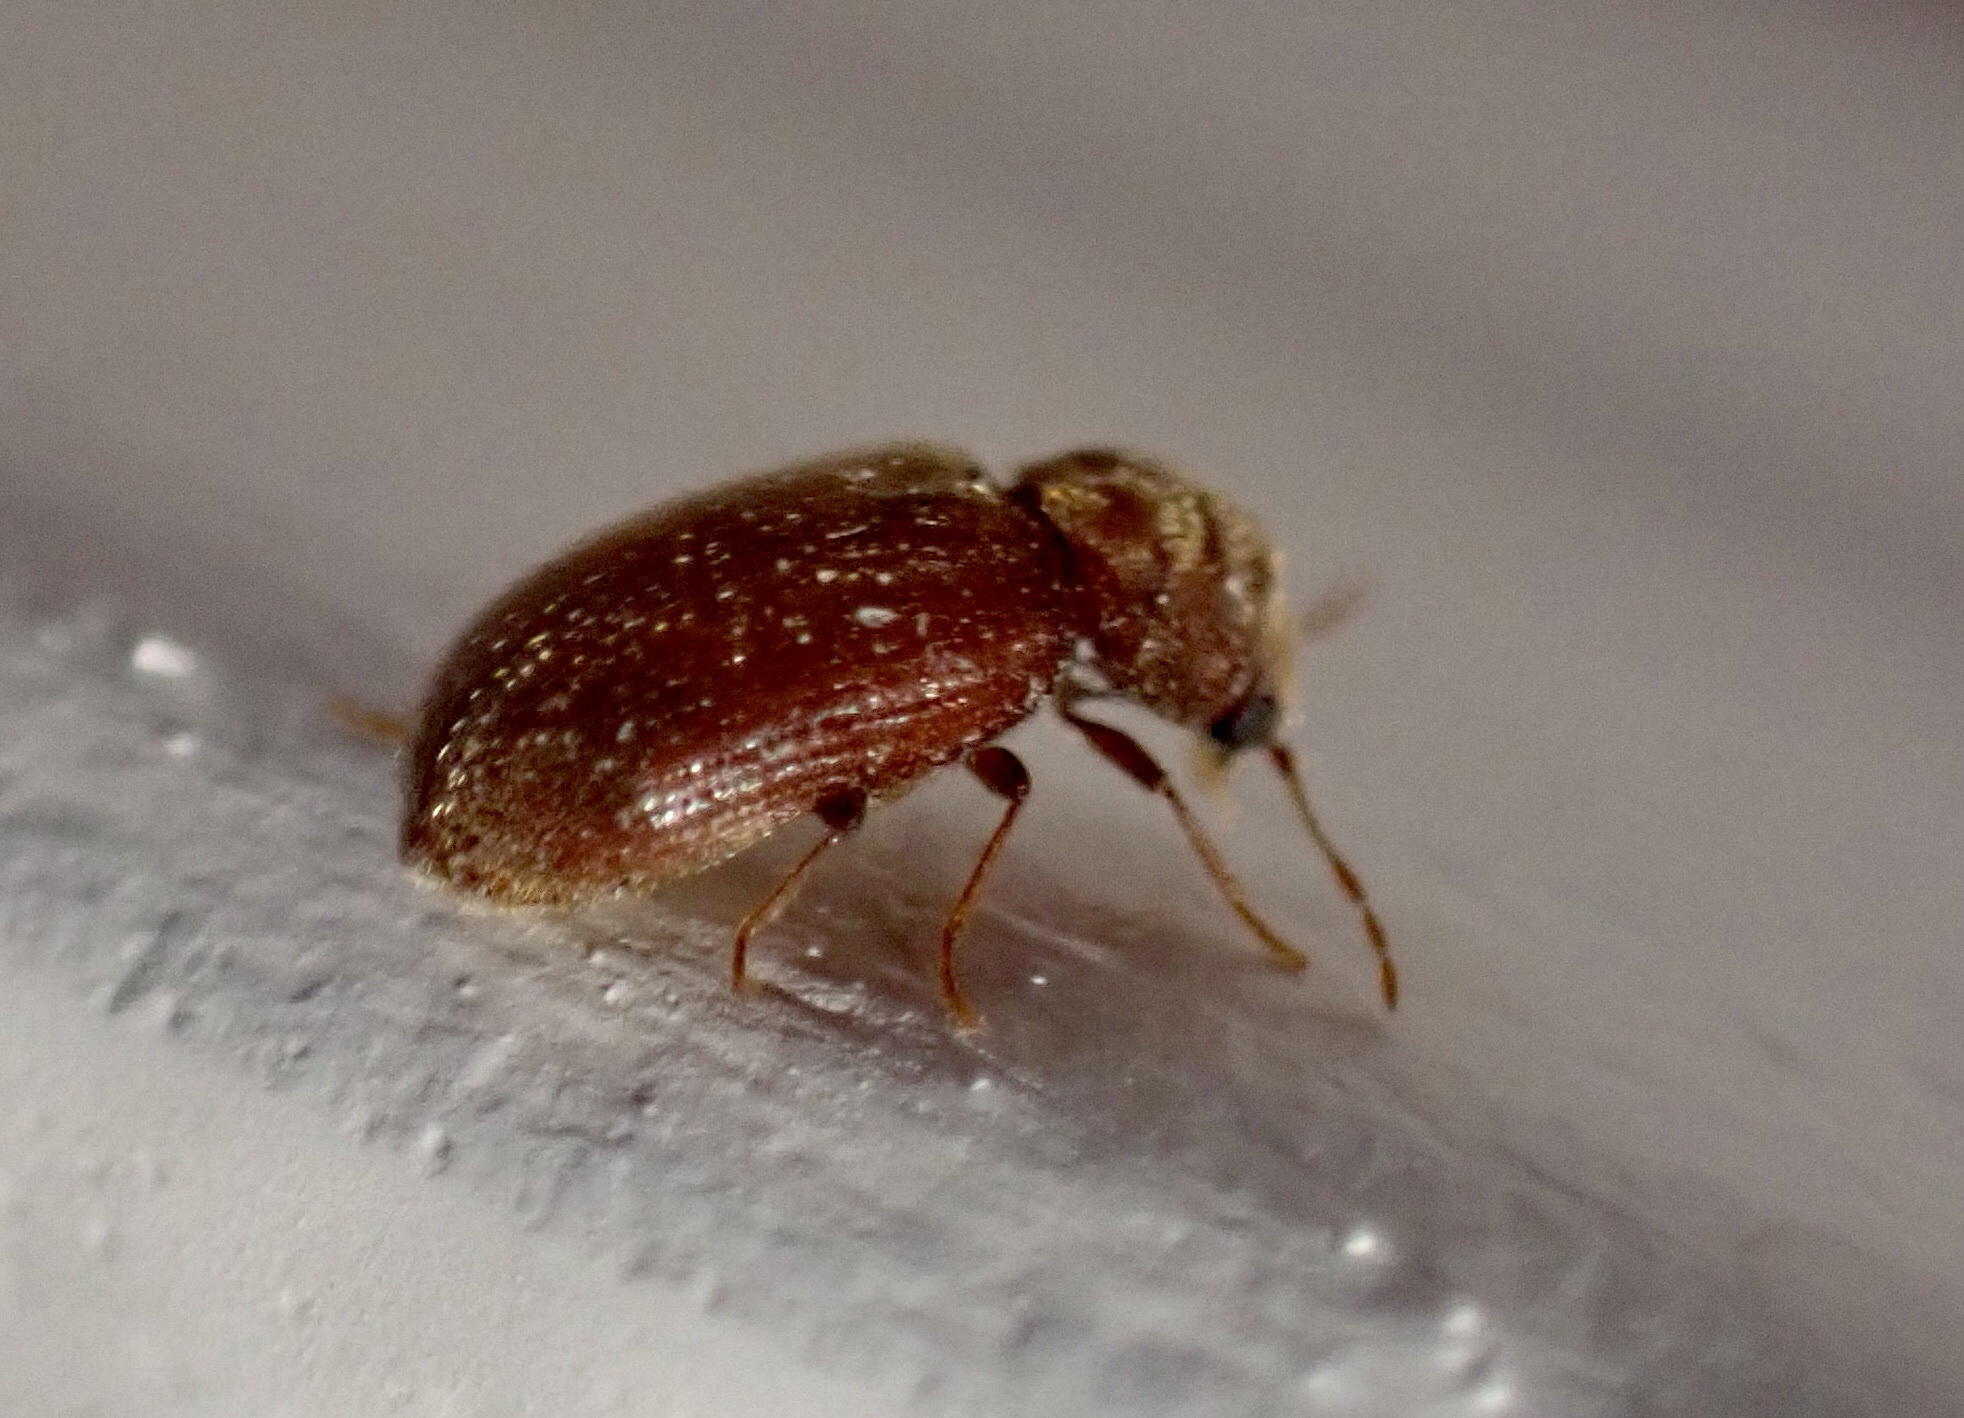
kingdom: Animalia
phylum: Arthropoda
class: Insecta
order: Coleoptera
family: Anobiidae
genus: Stegobium
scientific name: Stegobium paniceum
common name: Drugstore beetle
